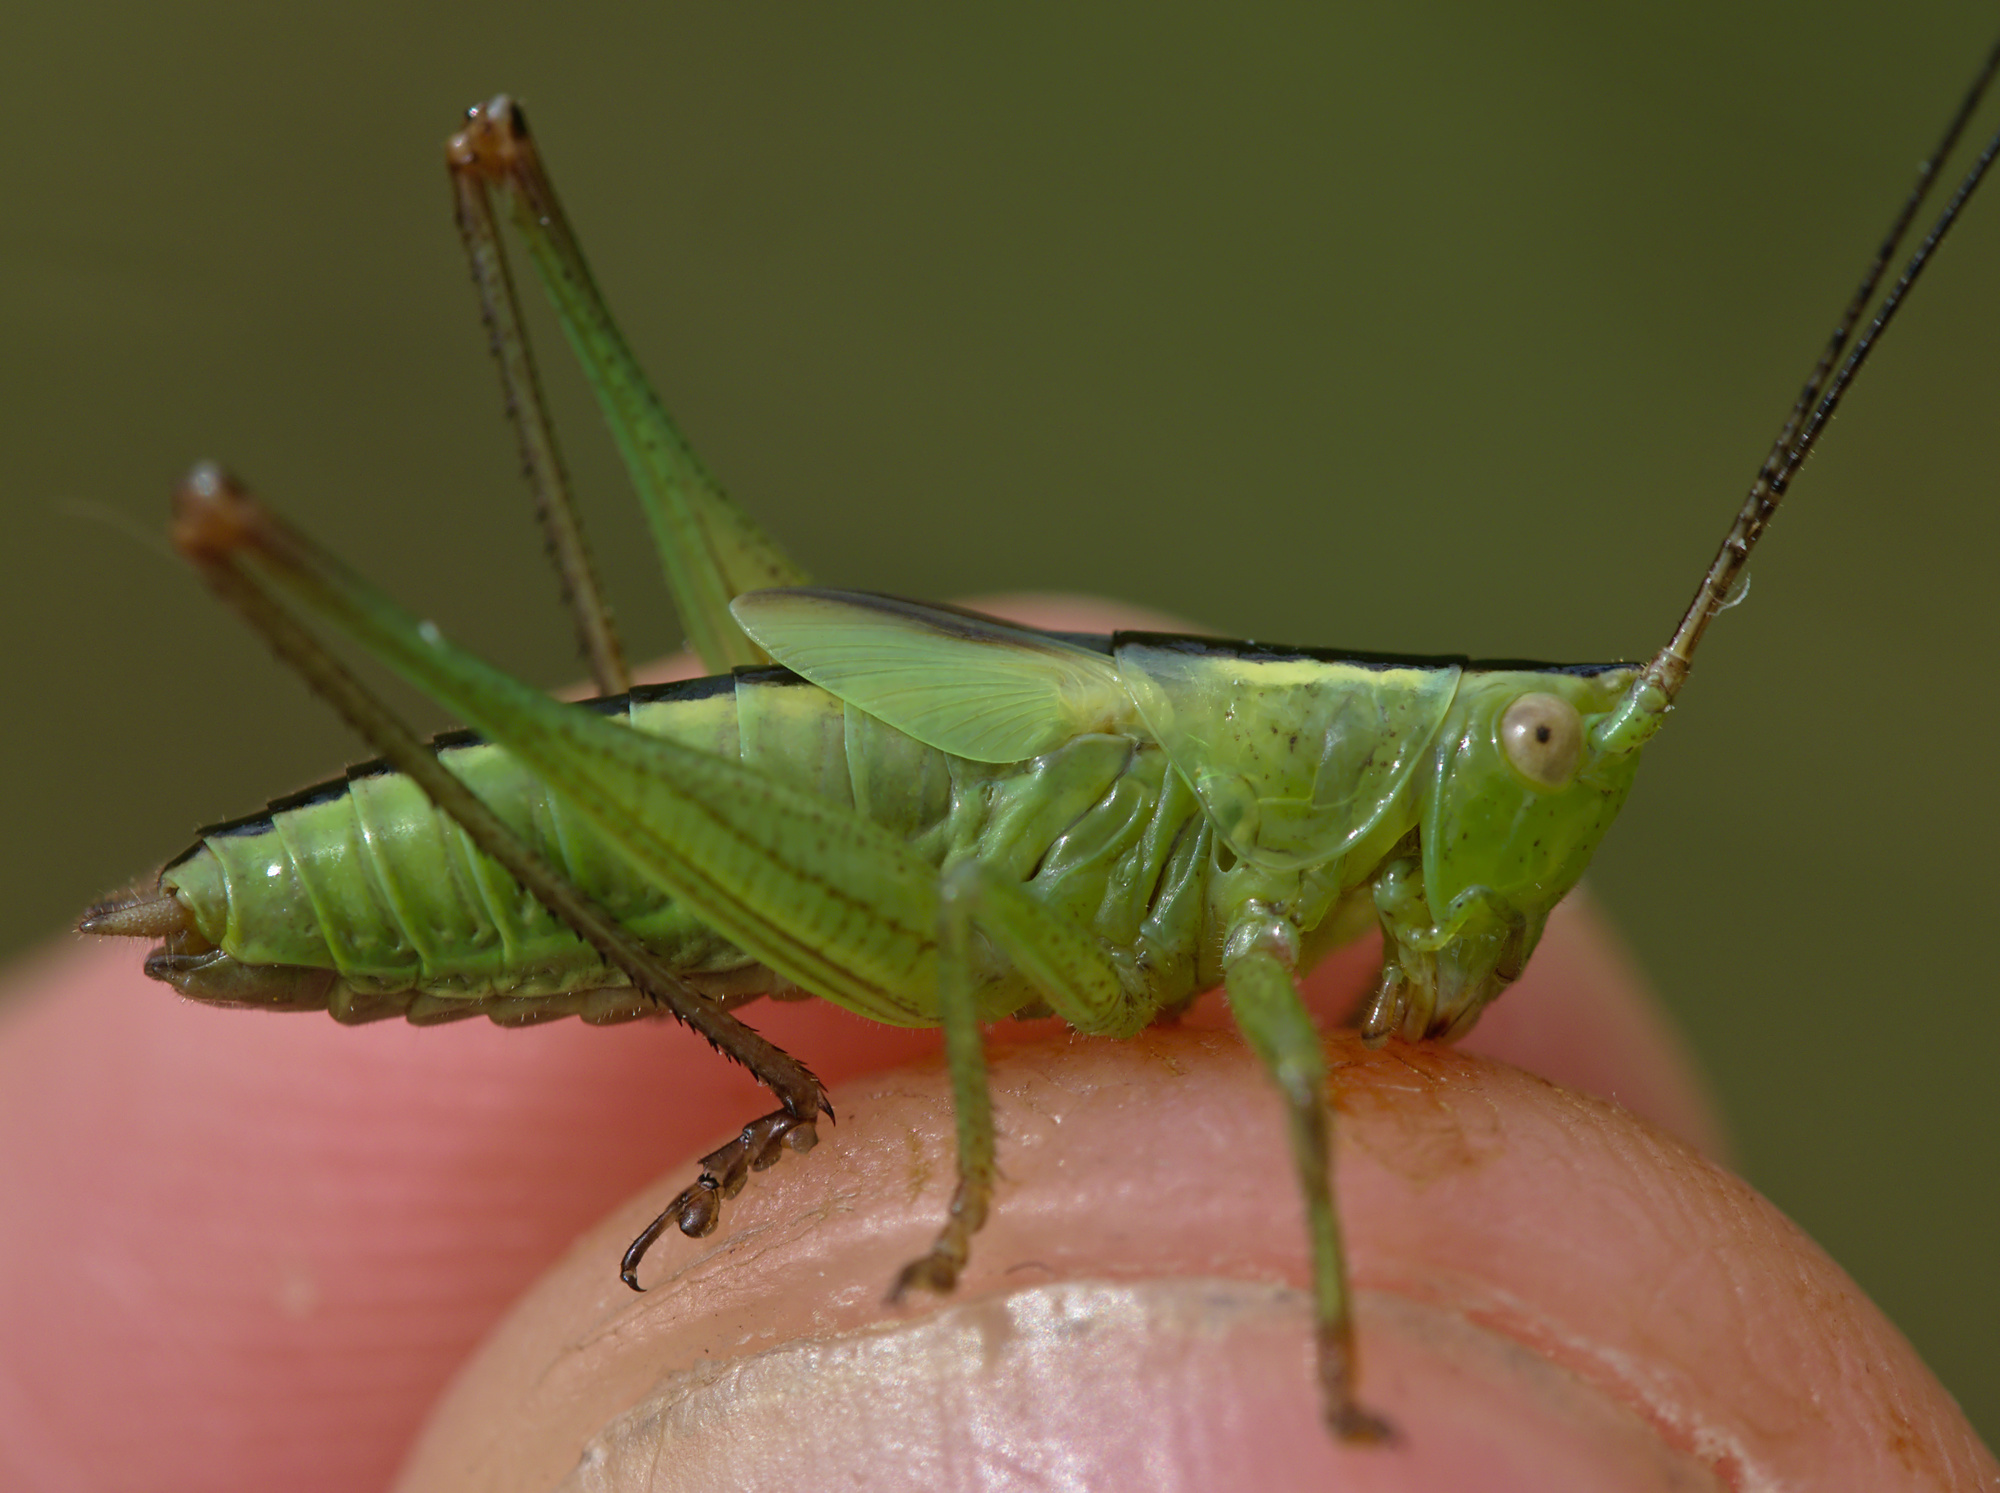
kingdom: Animalia
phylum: Arthropoda
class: Insecta
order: Orthoptera
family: Tettigoniidae
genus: Conocephalus
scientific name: Conocephalus fuscus
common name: Long-winged conehead
